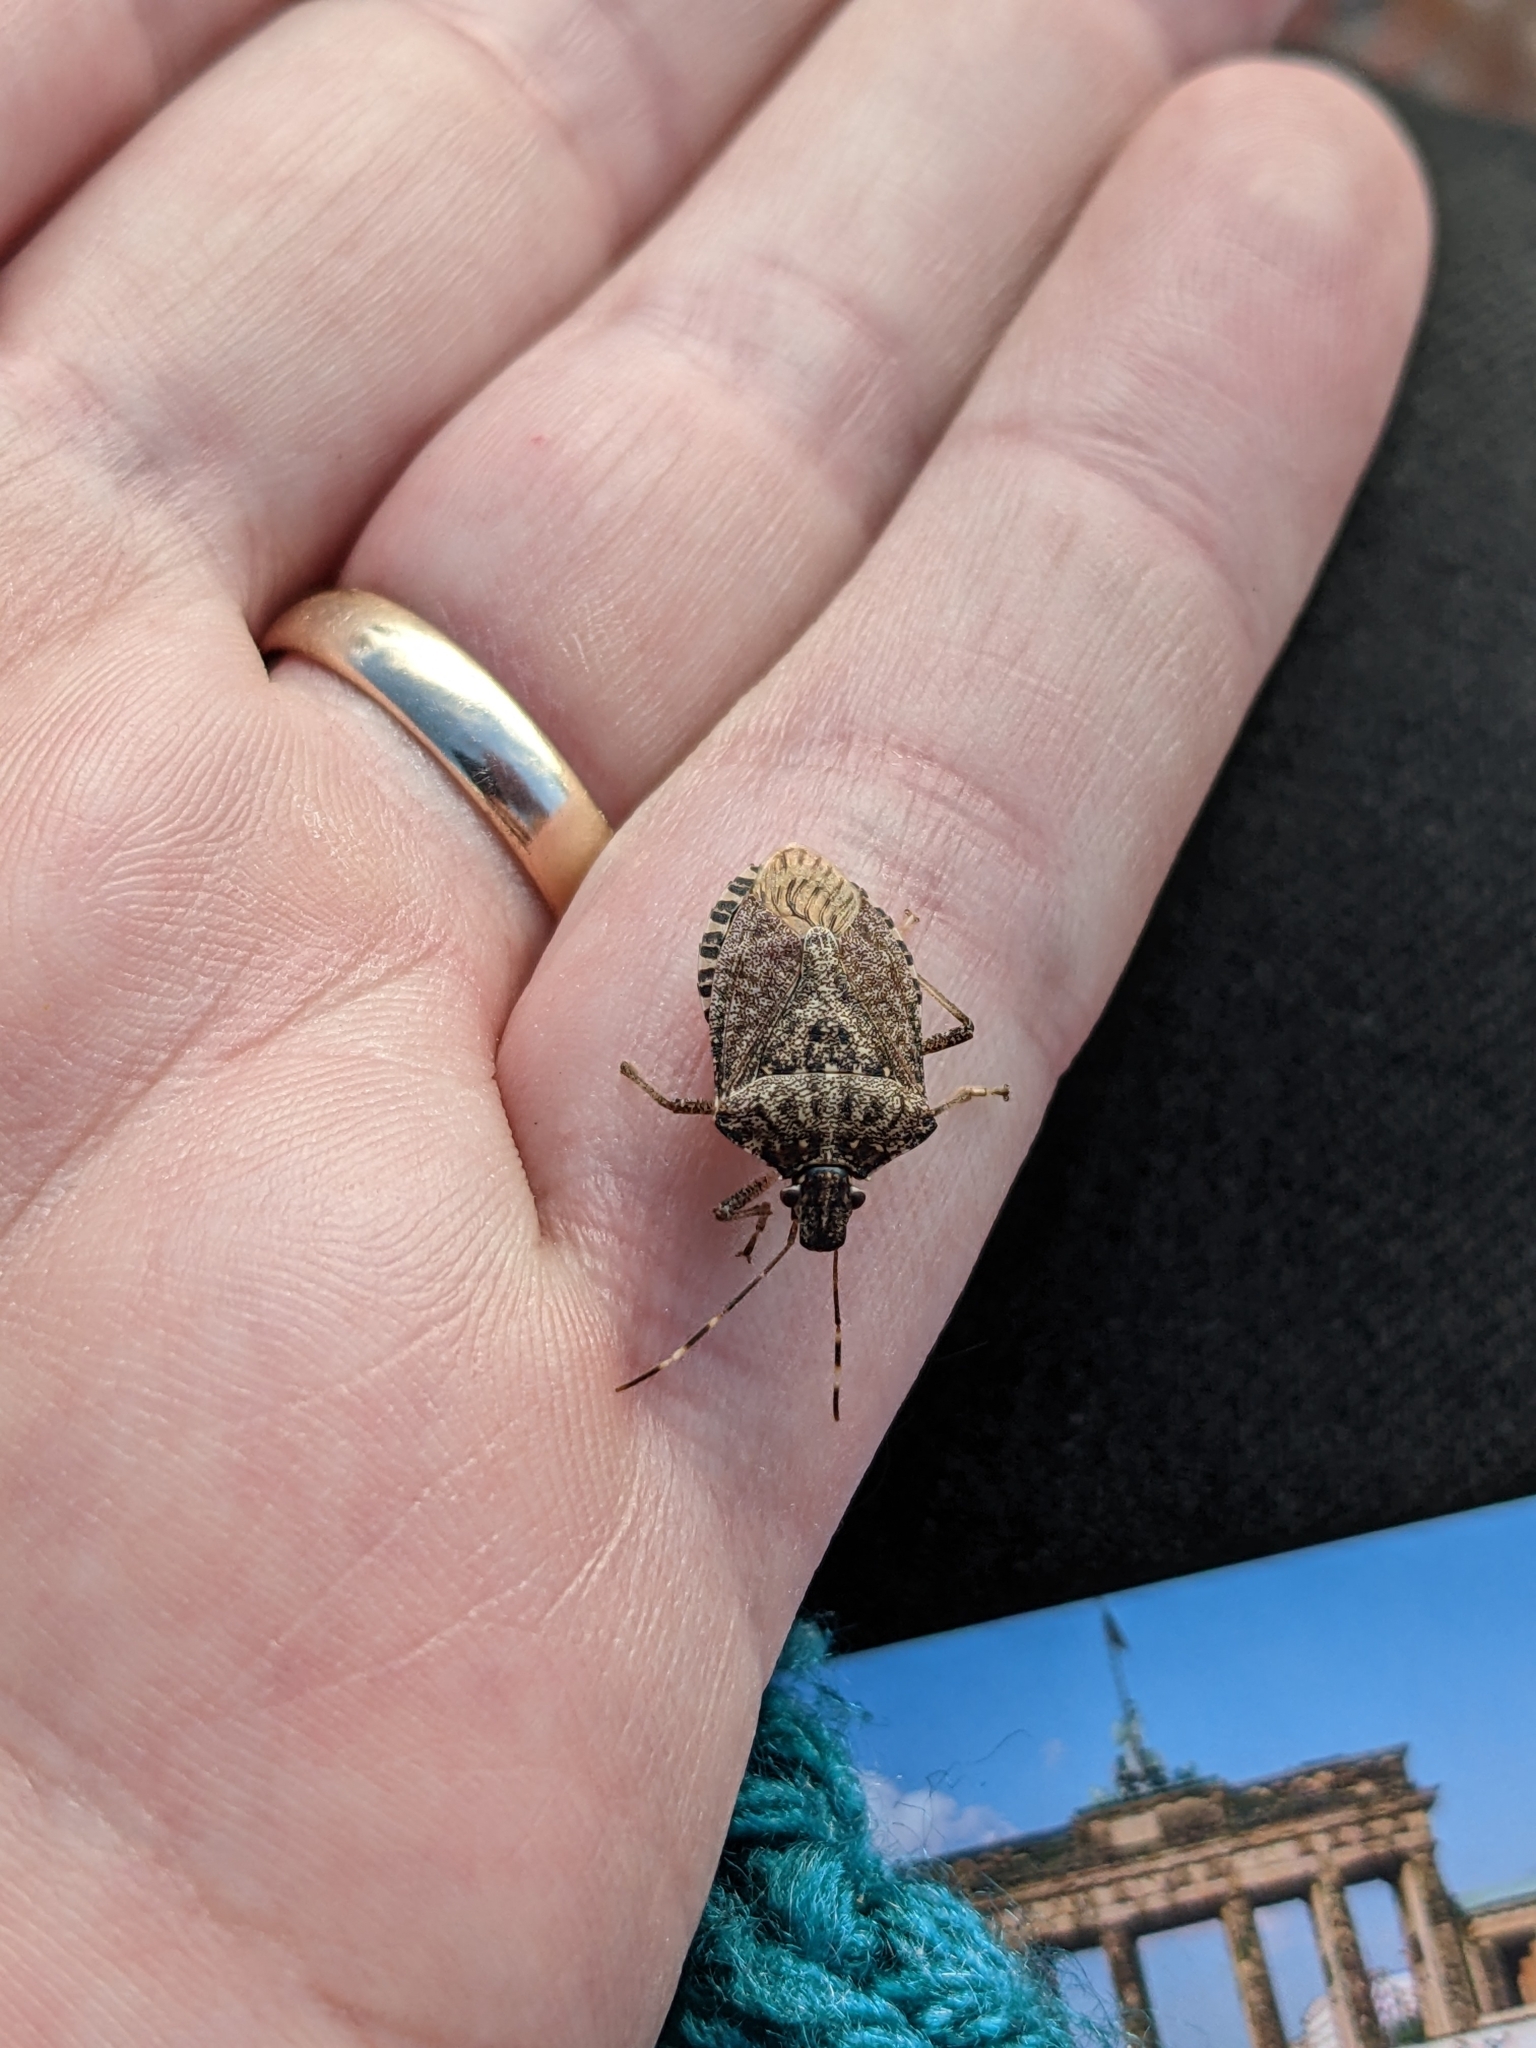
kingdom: Animalia
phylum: Arthropoda
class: Insecta
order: Hemiptera
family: Pentatomidae
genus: Halyomorpha
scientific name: Halyomorpha halys
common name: Brown marmorated stink bug
